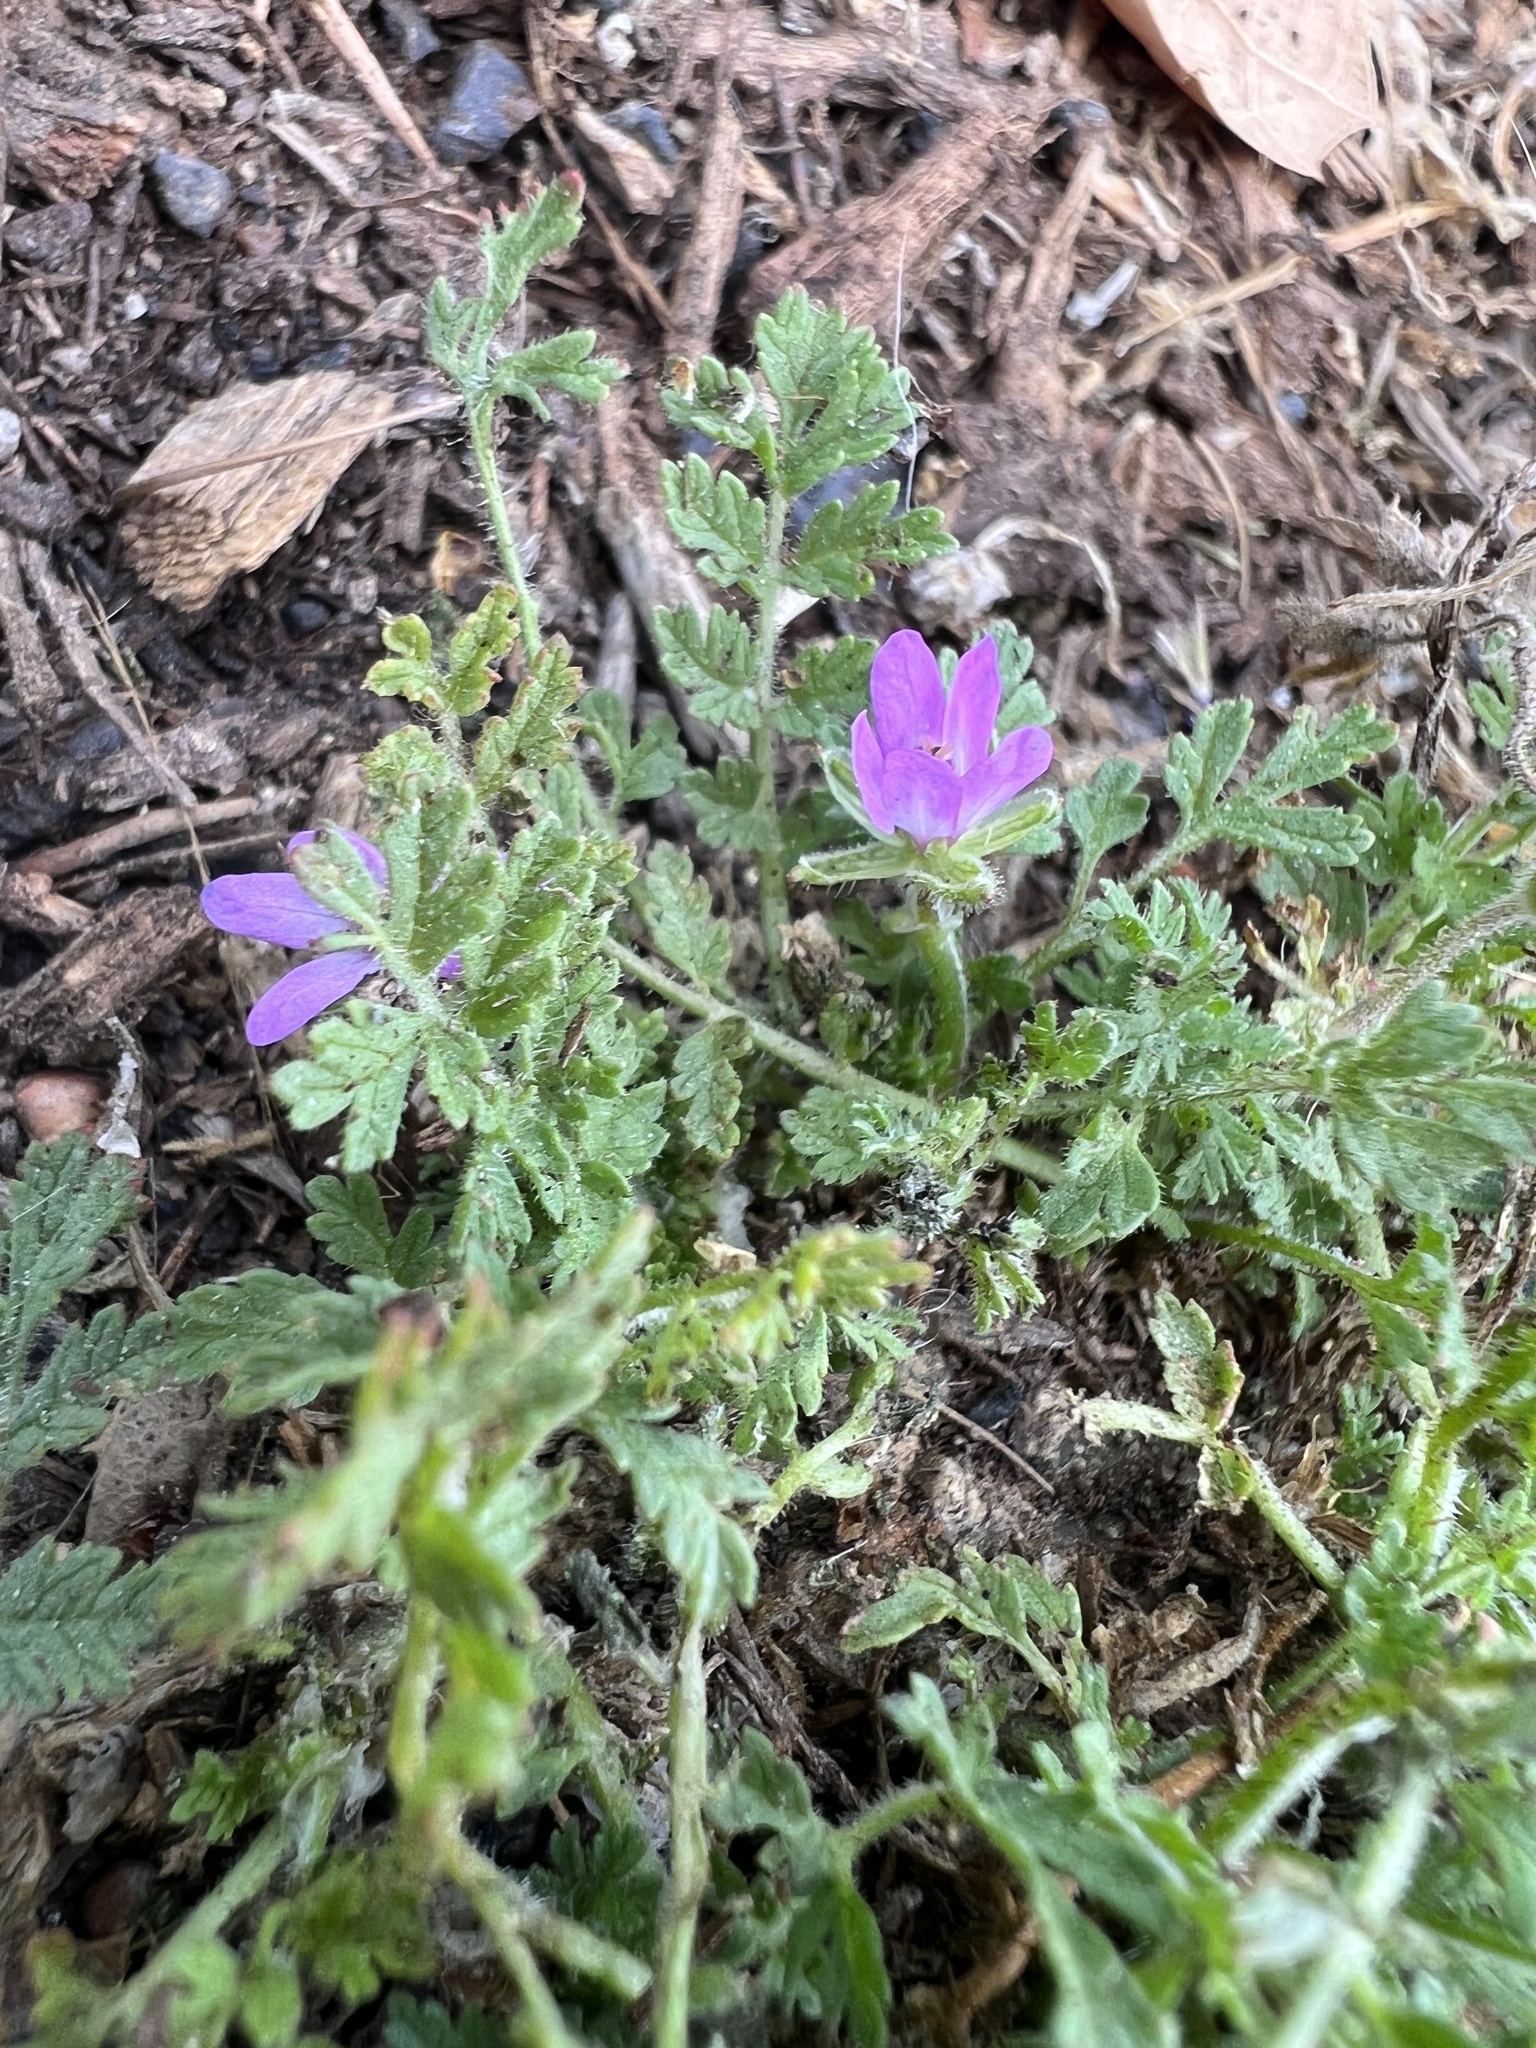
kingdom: Plantae
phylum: Tracheophyta
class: Magnoliopsida
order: Geraniales
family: Geraniaceae
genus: Erodium
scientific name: Erodium moschatum
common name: Musk stork's-bill
